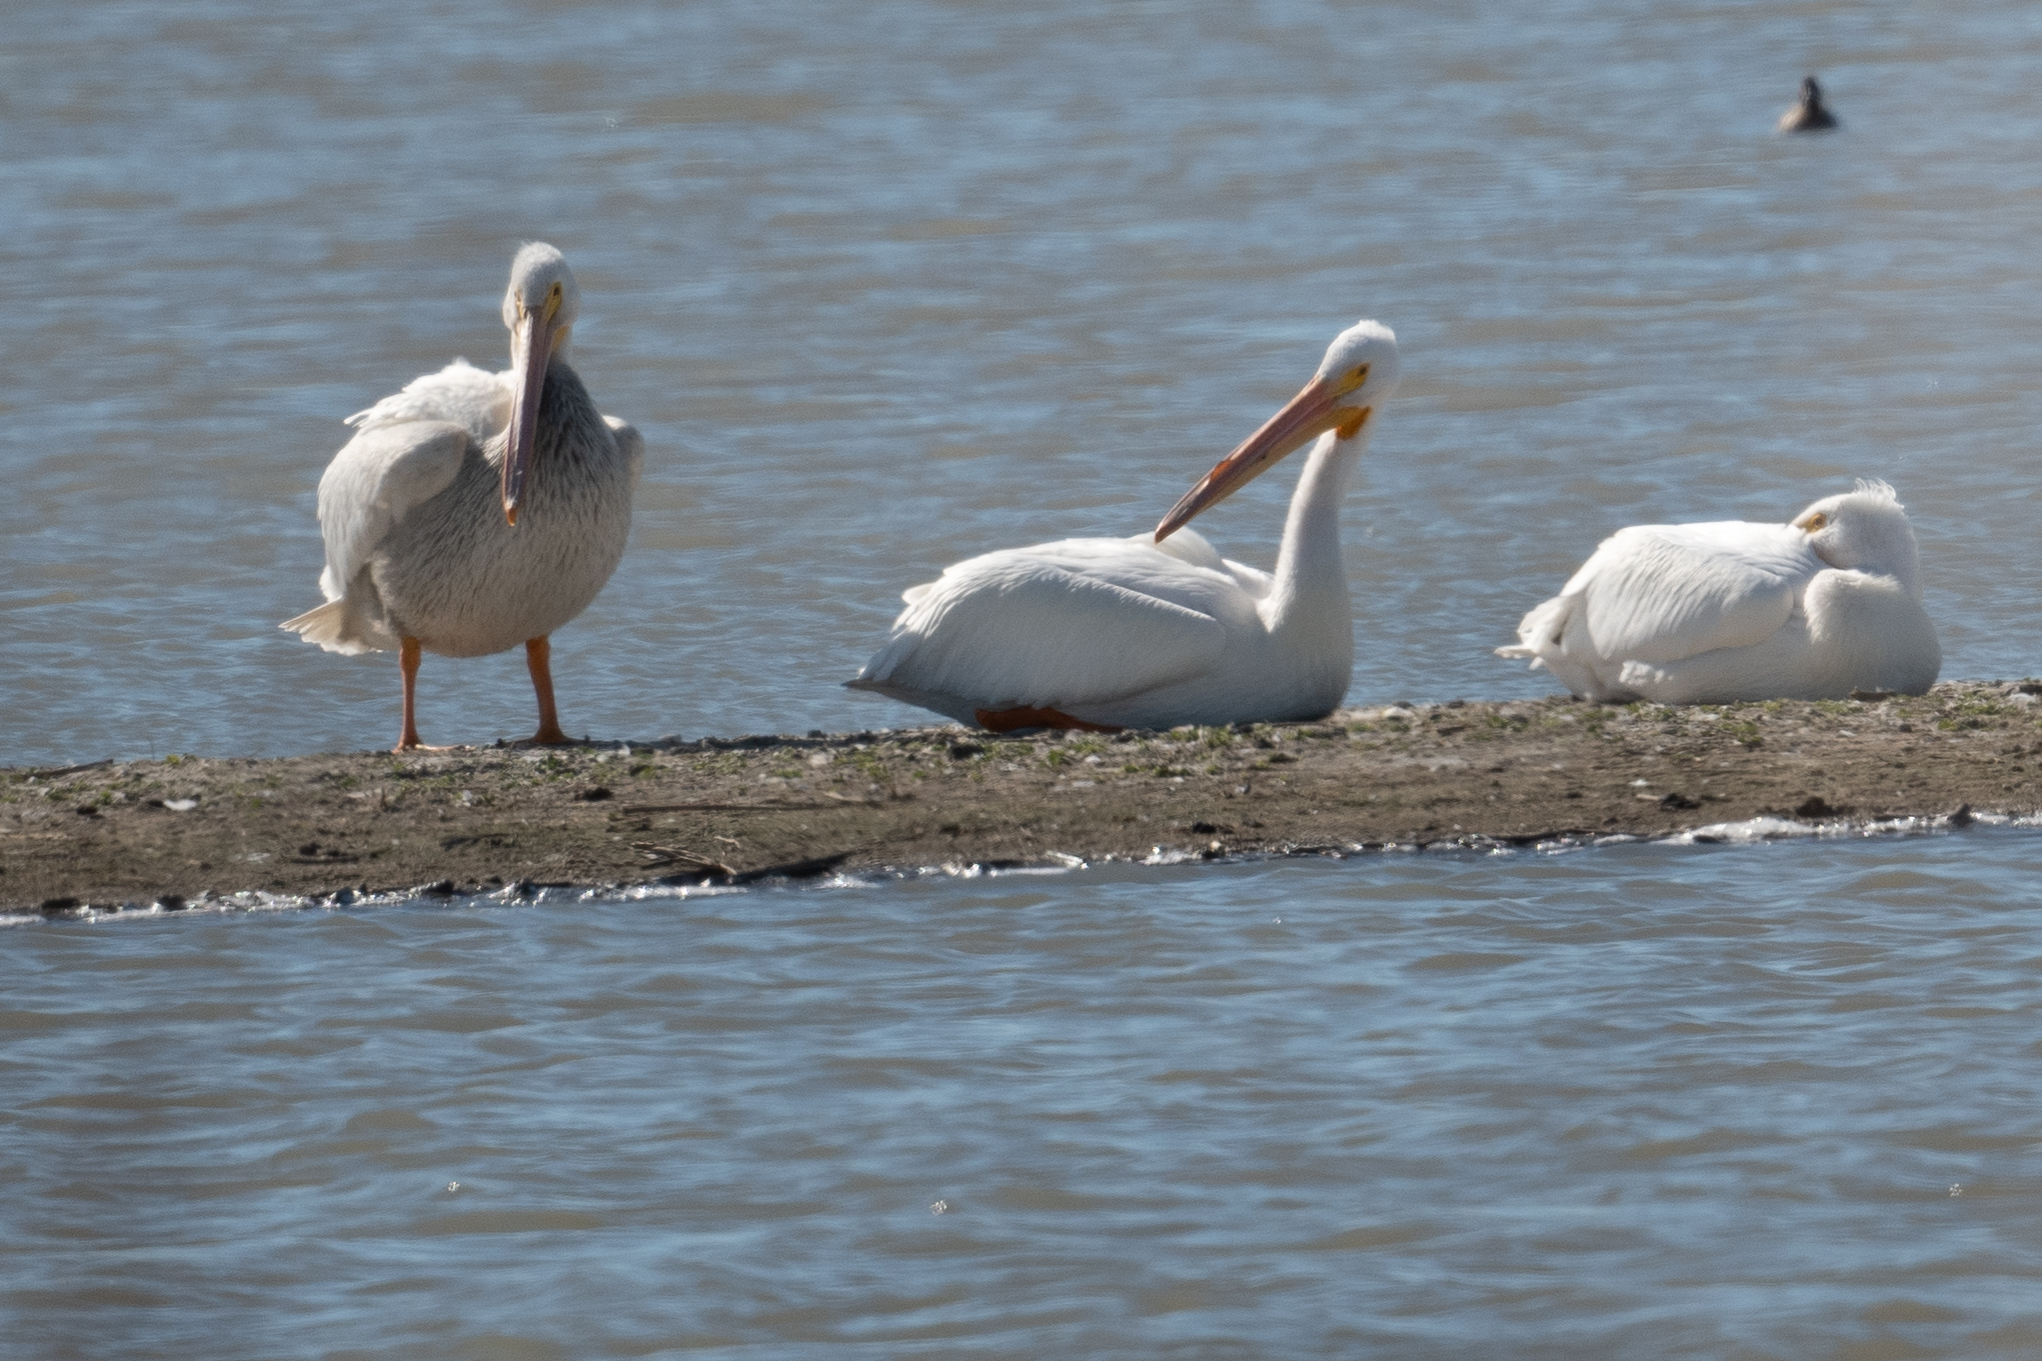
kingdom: Animalia
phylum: Chordata
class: Aves
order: Pelecaniformes
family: Pelecanidae
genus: Pelecanus
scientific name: Pelecanus erythrorhynchos
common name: American white pelican
